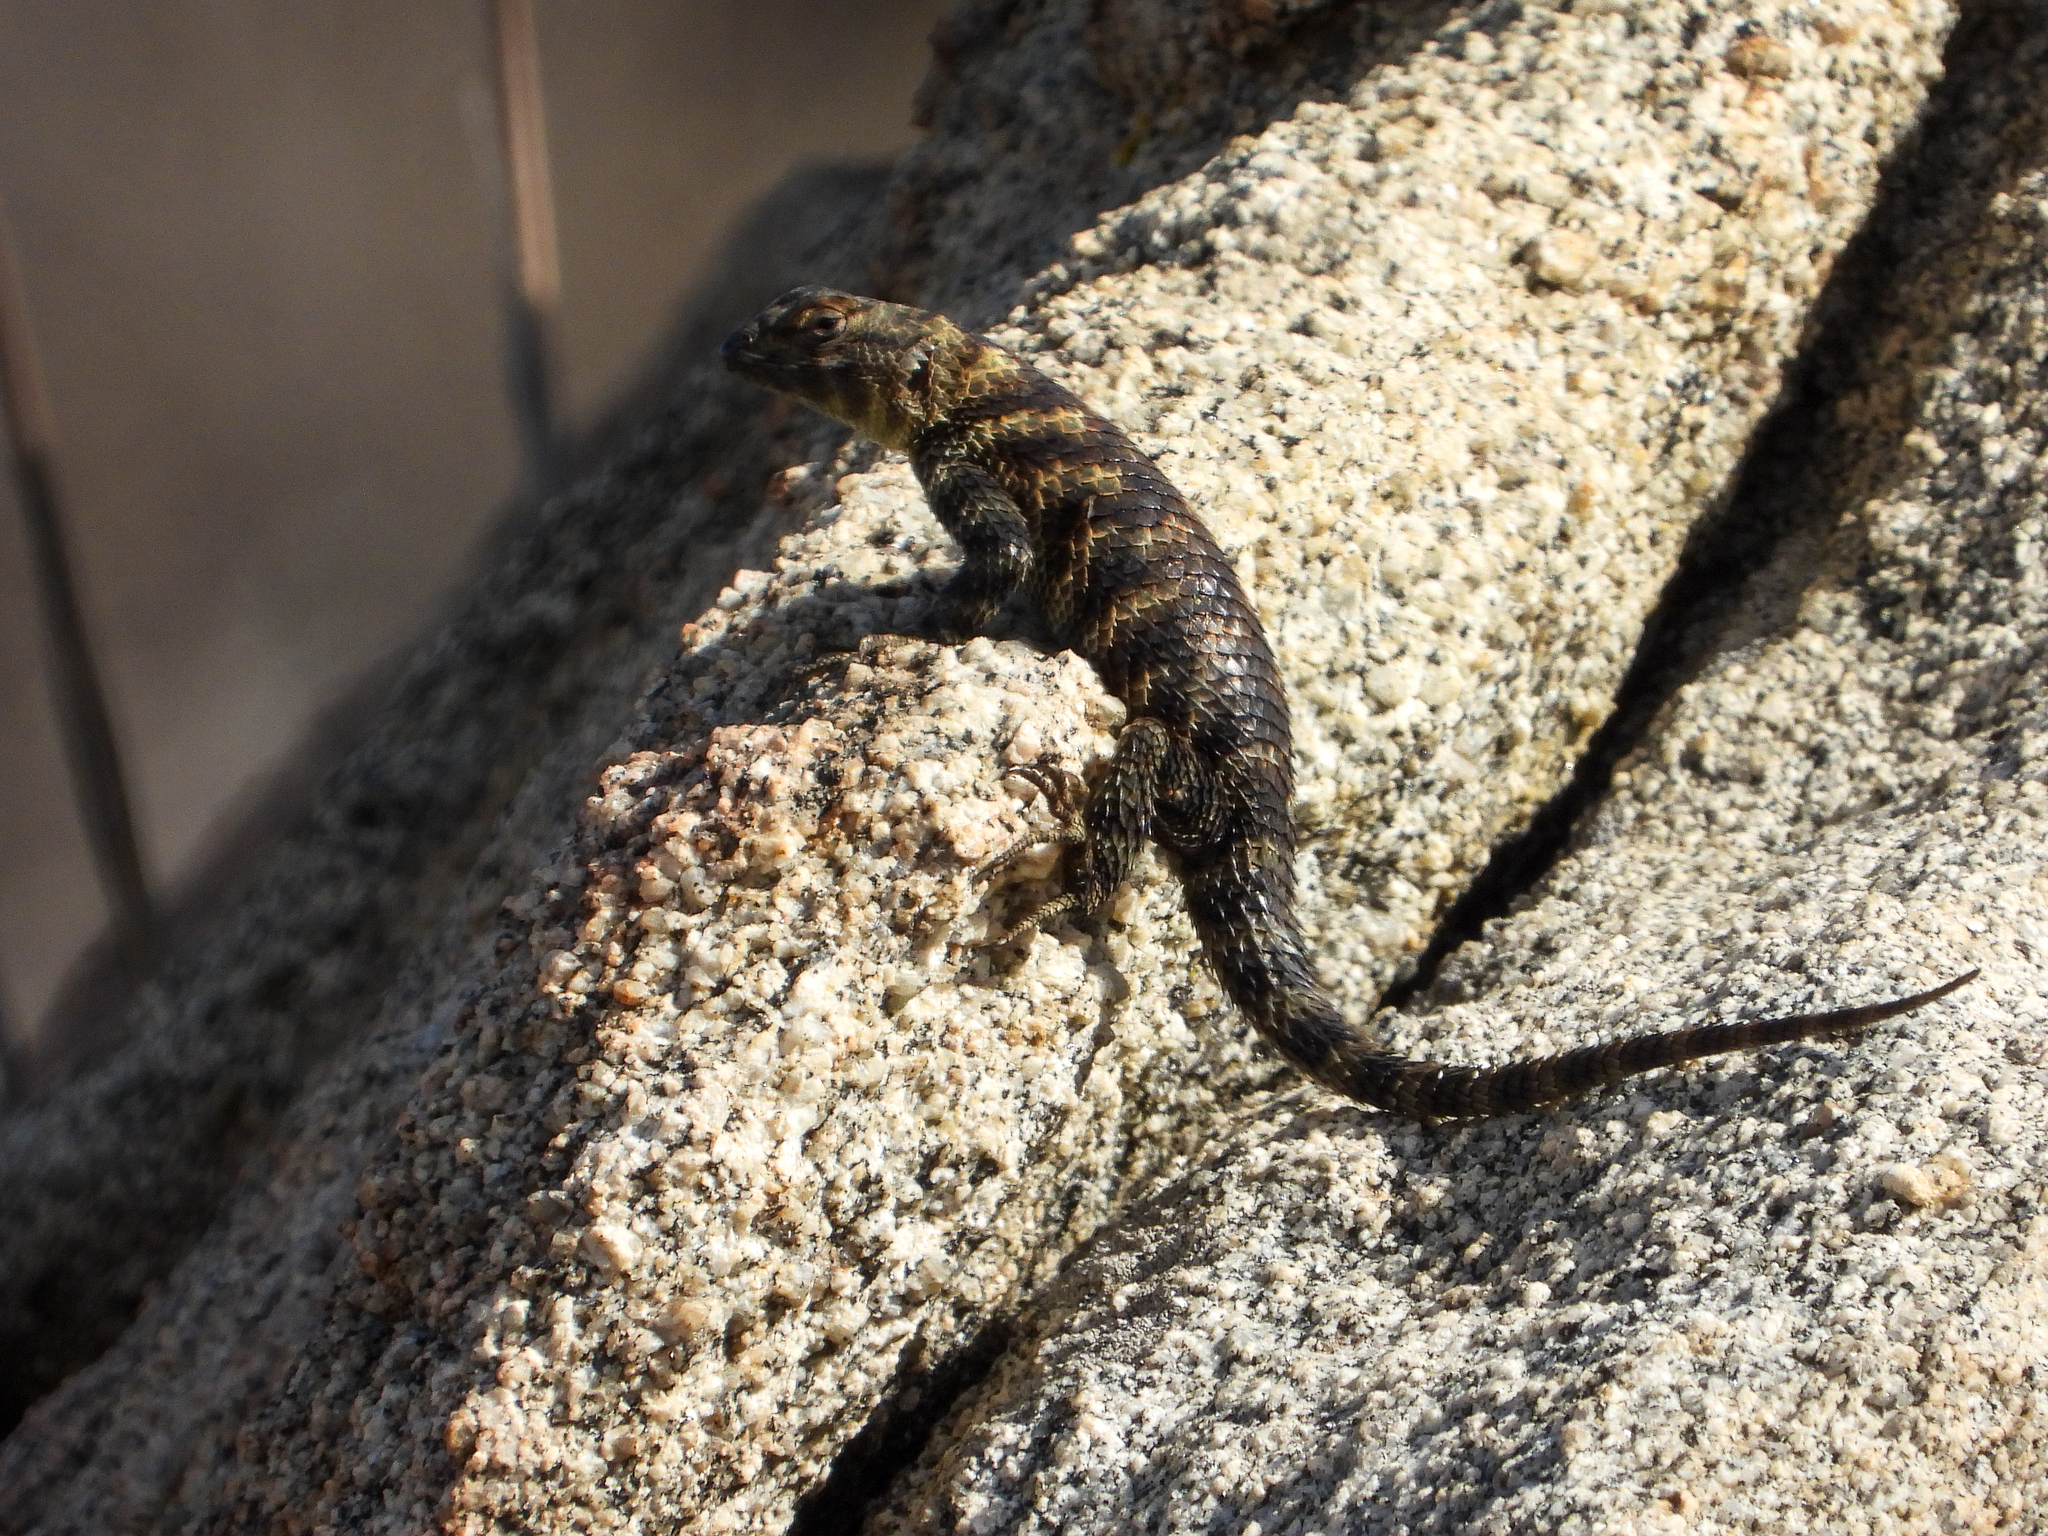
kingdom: Animalia
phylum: Chordata
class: Squamata
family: Phrynosomatidae
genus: Sceloporus
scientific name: Sceloporus orcutti
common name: Granite spiny lizard
